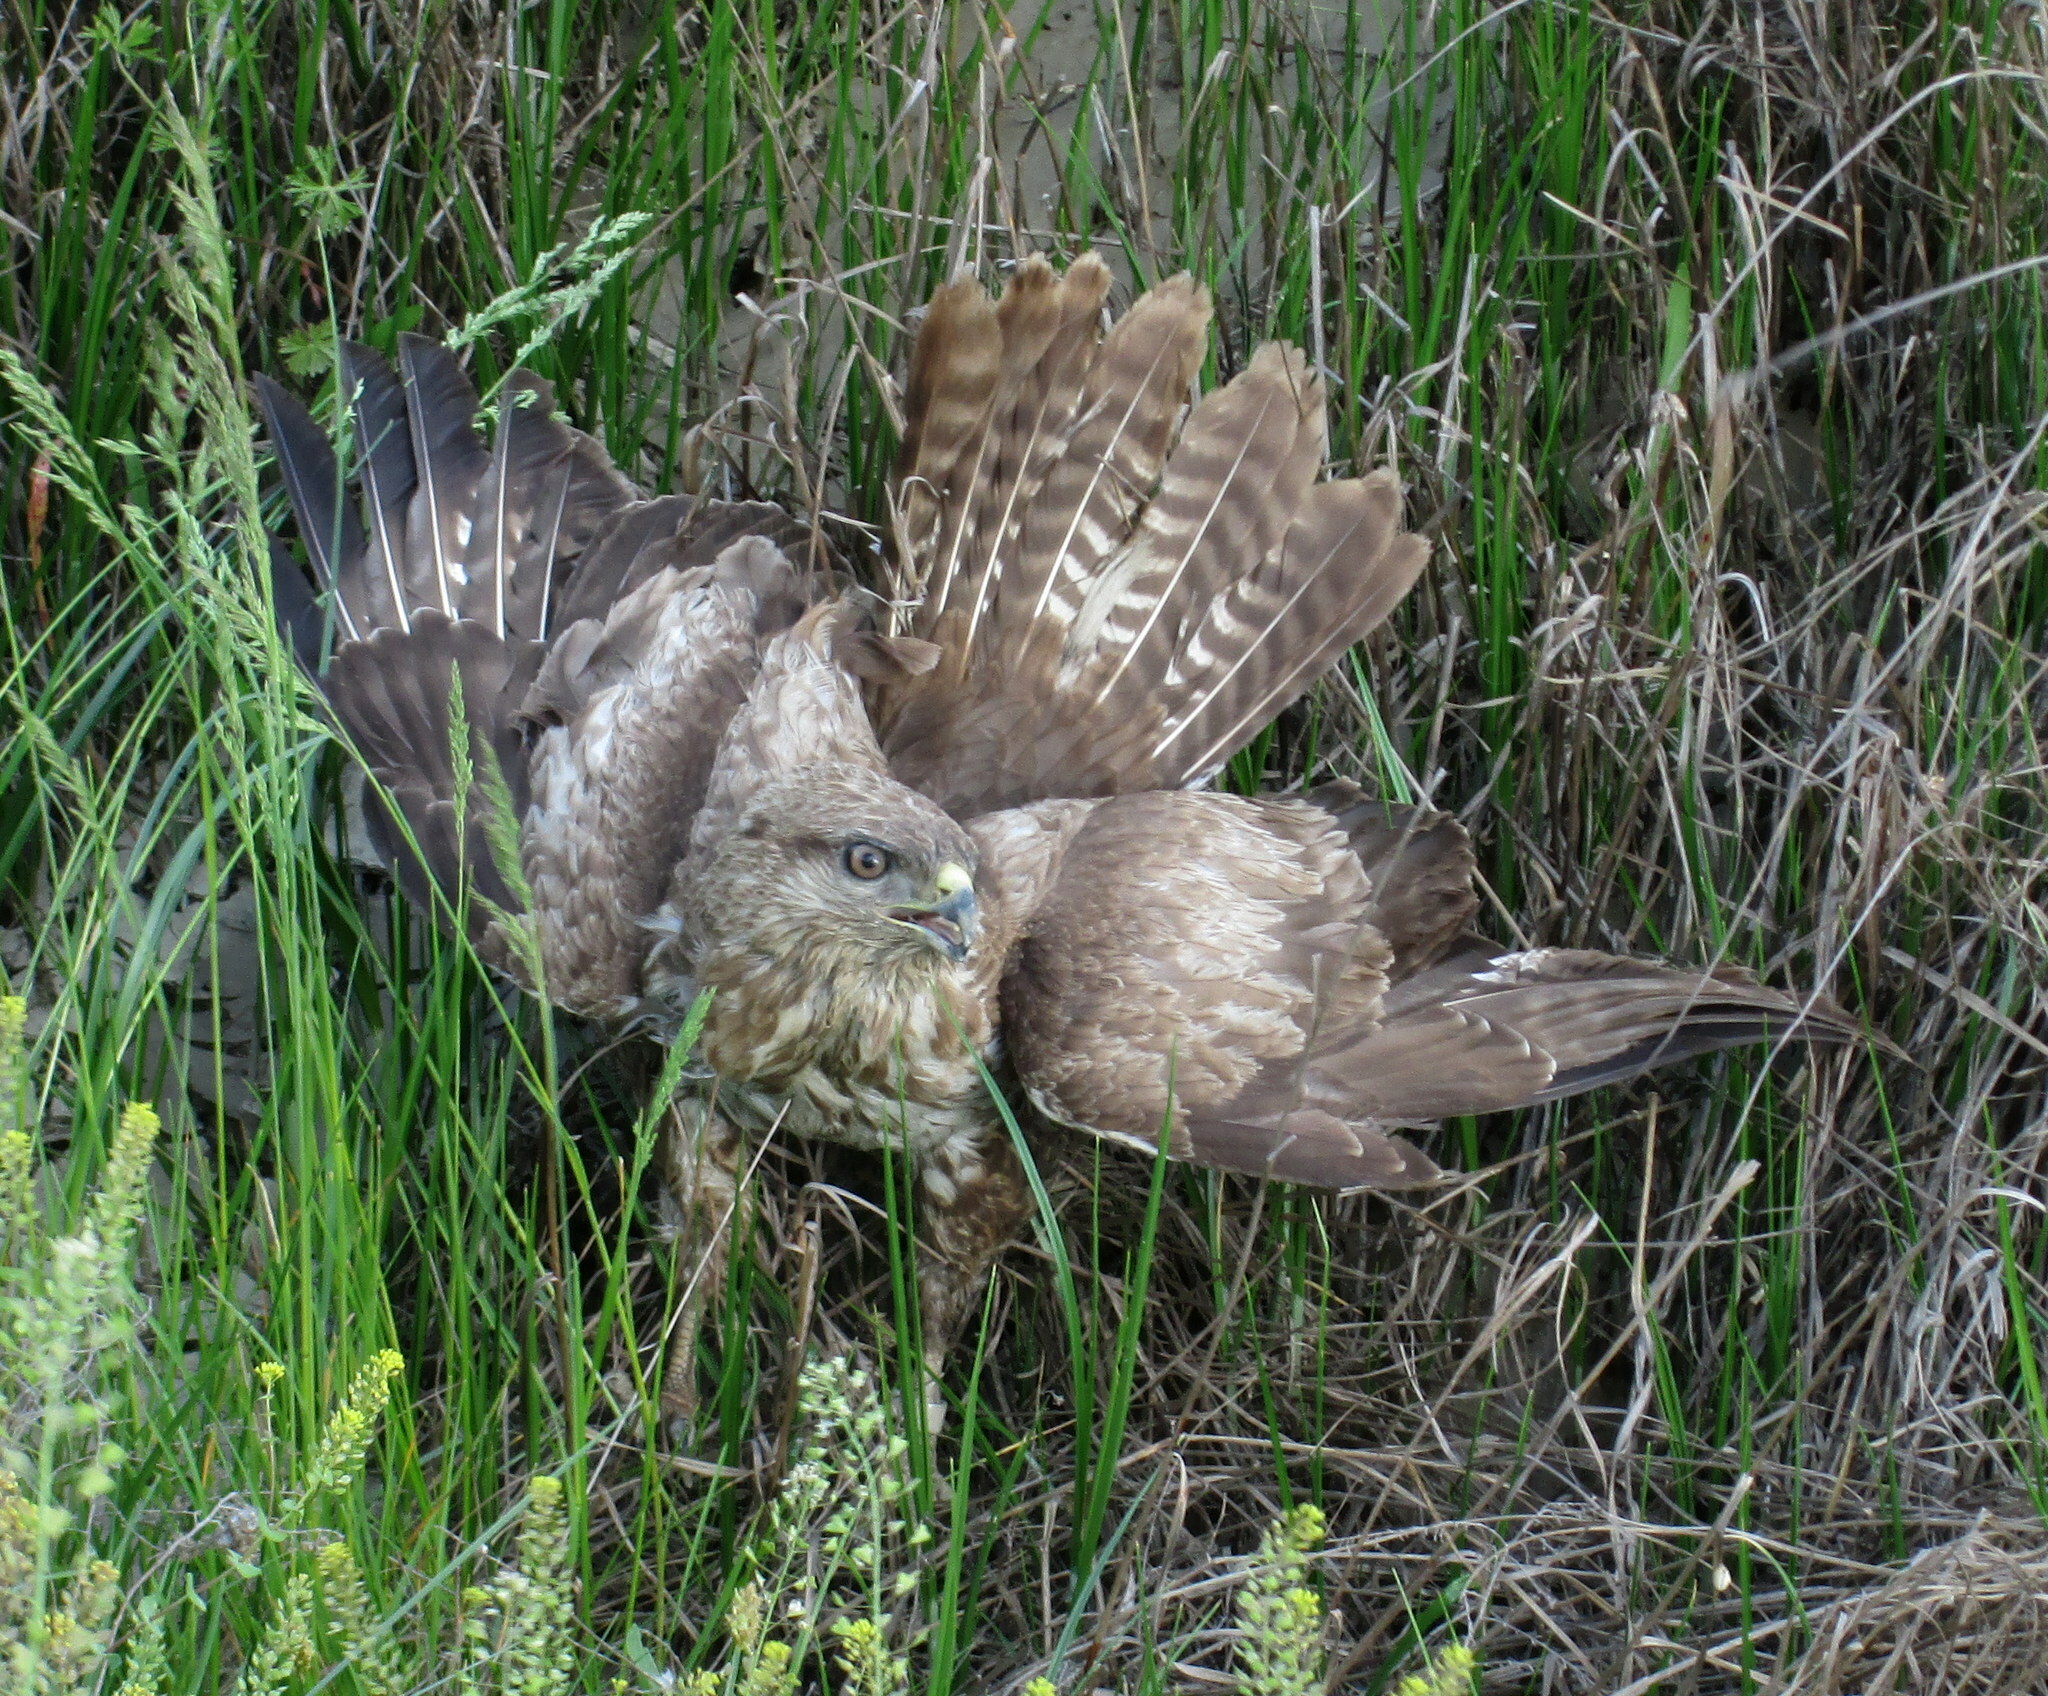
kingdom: Animalia
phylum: Chordata
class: Aves
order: Accipitriformes
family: Accipitridae
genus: Buteo
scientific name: Buteo buteo
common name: Common buzzard
